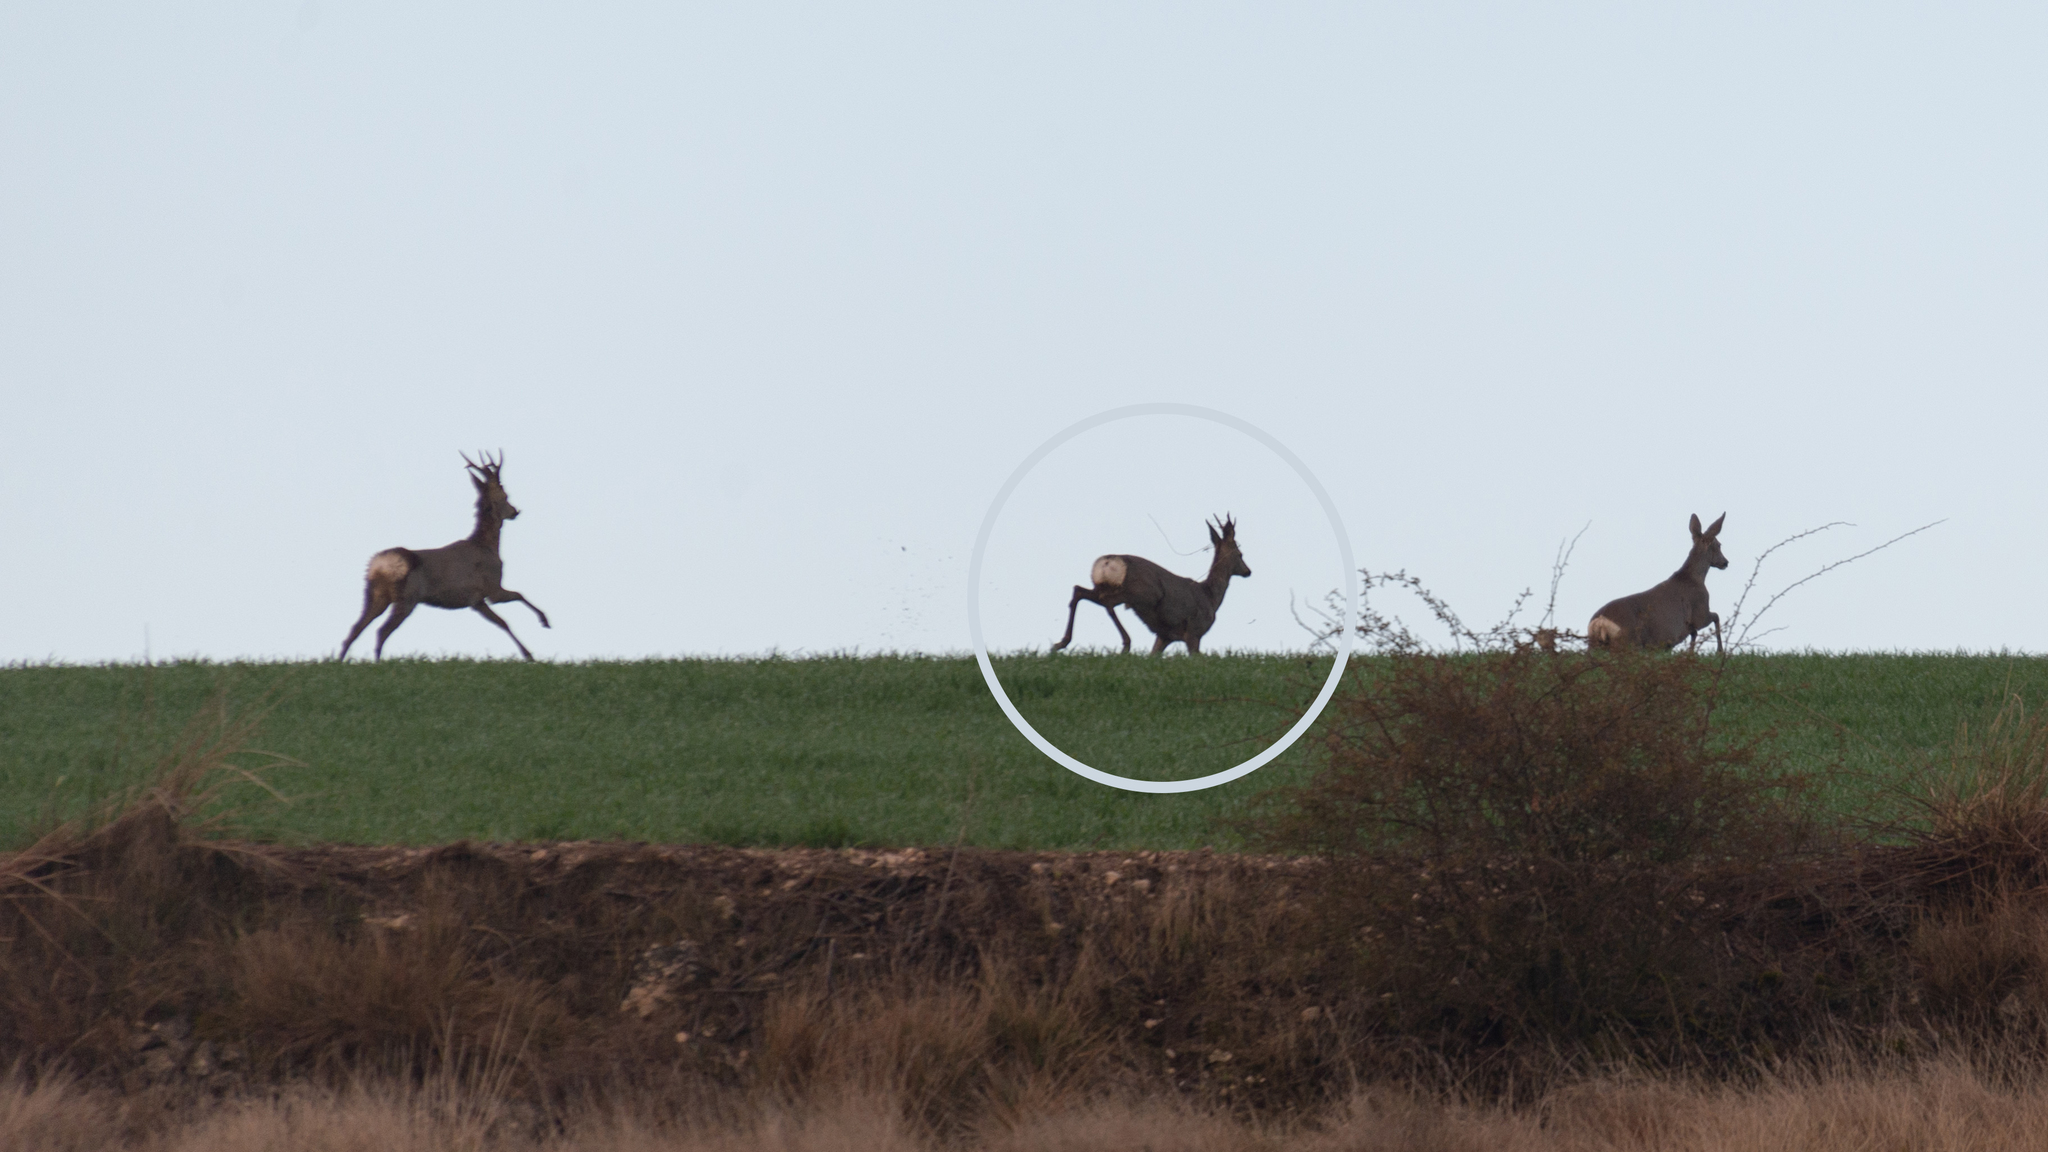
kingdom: Animalia
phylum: Chordata
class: Mammalia
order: Artiodactyla
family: Cervidae
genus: Capreolus
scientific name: Capreolus capreolus
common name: Western roe deer
